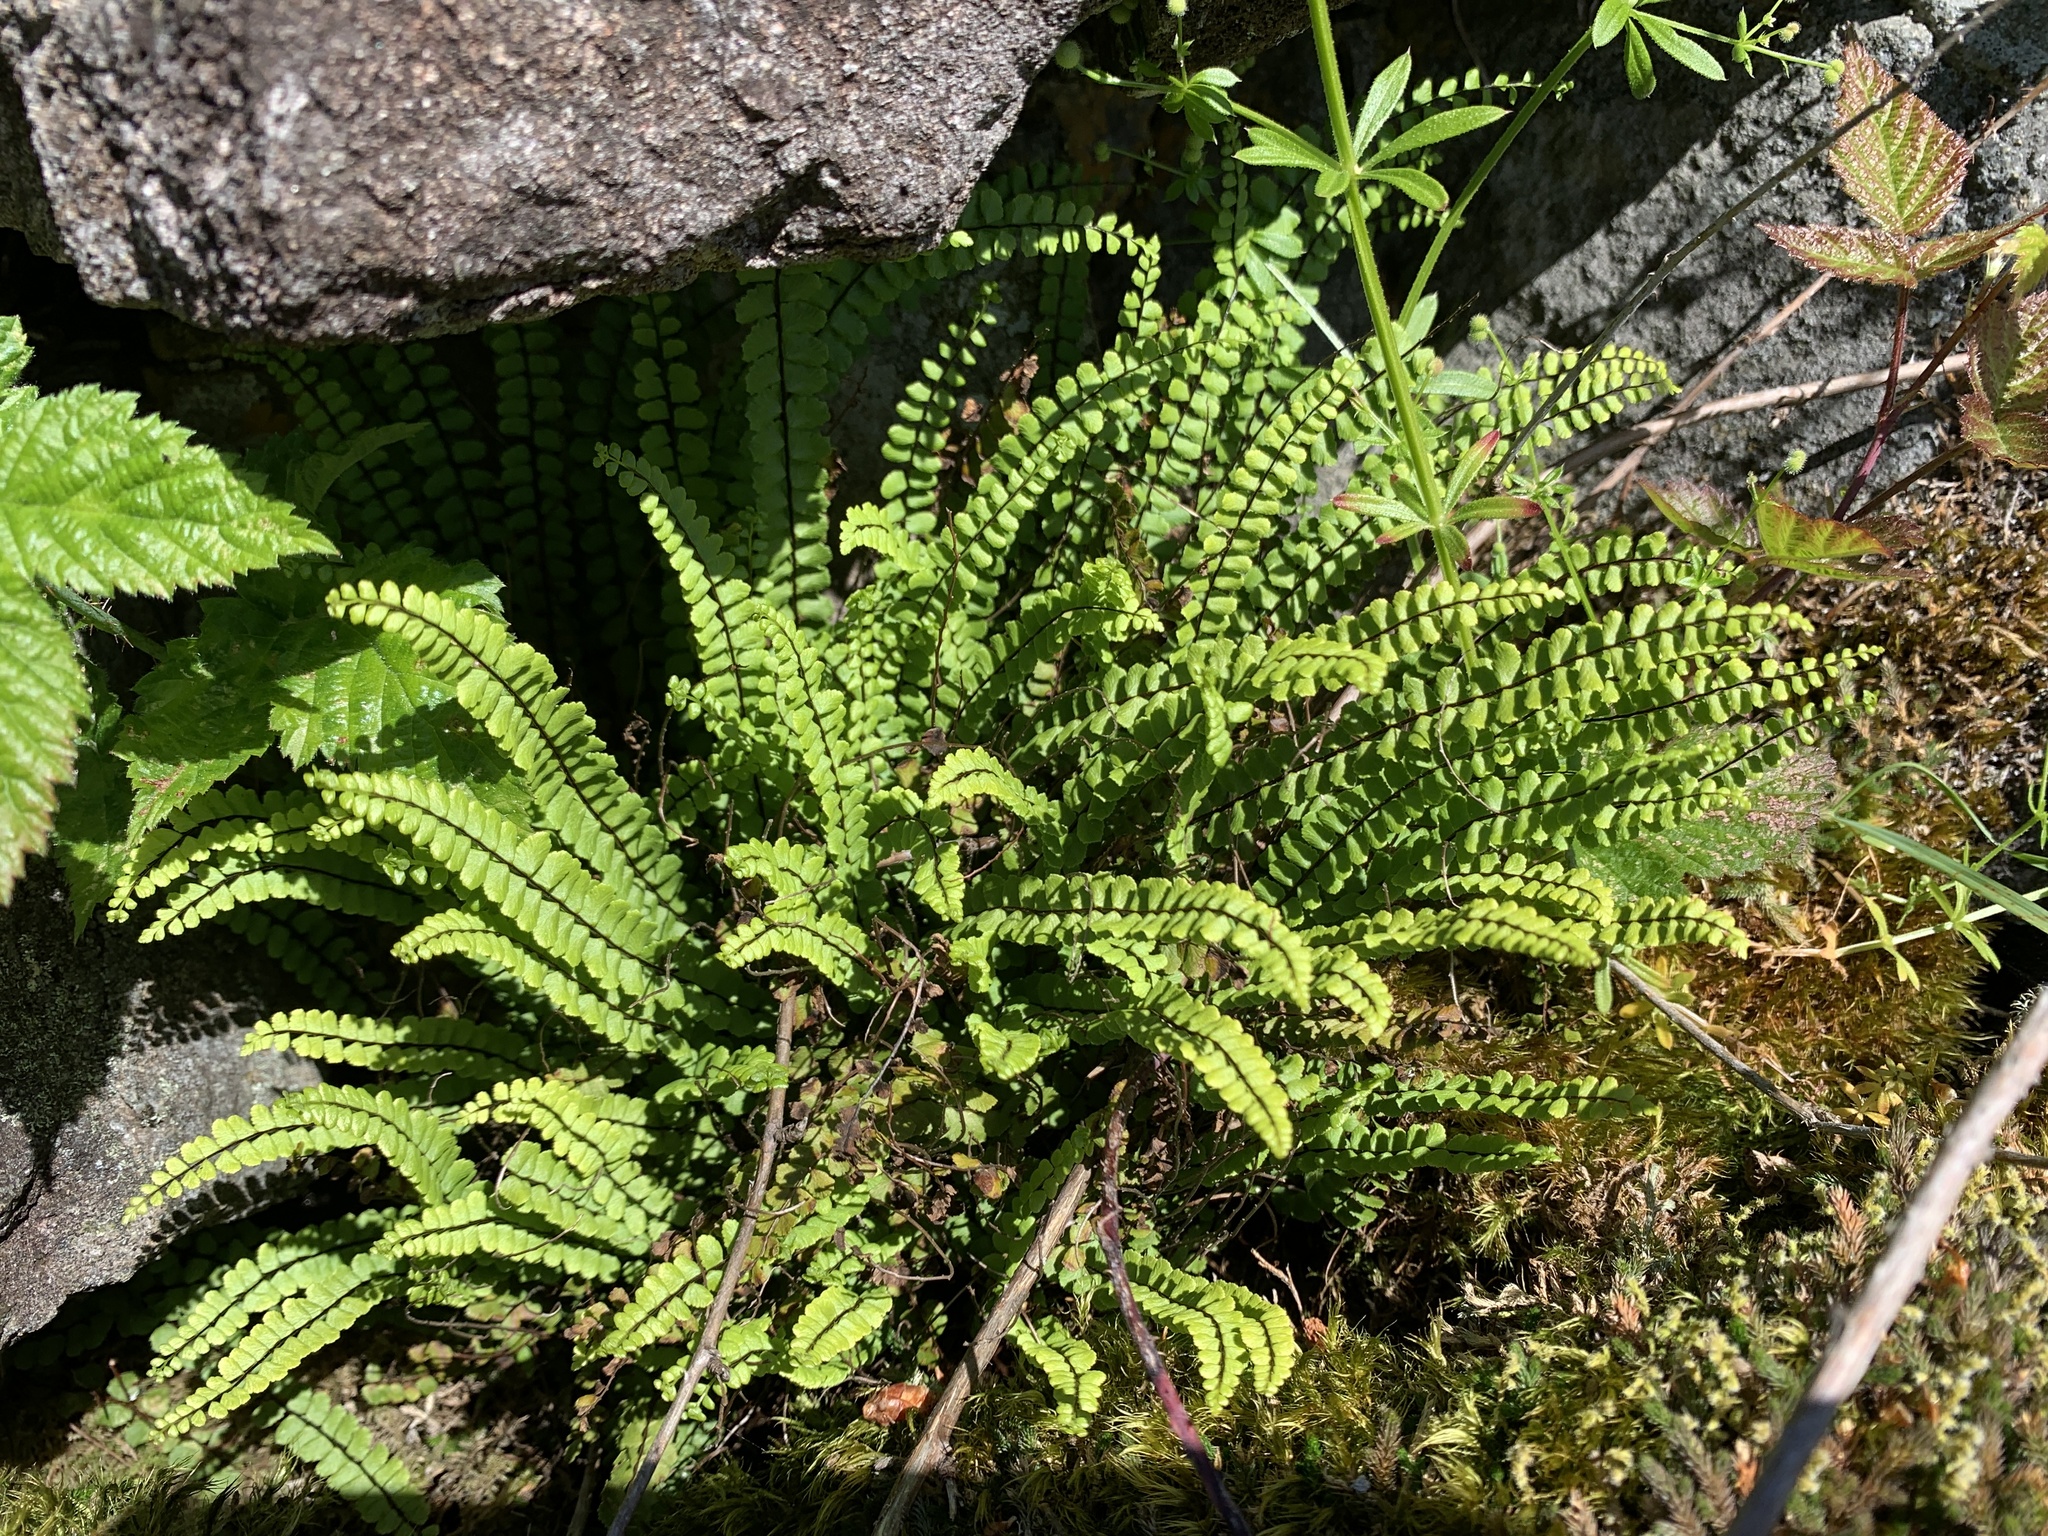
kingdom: Plantae
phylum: Tracheophyta
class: Polypodiopsida
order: Polypodiales
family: Aspleniaceae
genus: Asplenium
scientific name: Asplenium trichomanes
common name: Maidenhair spleenwort
